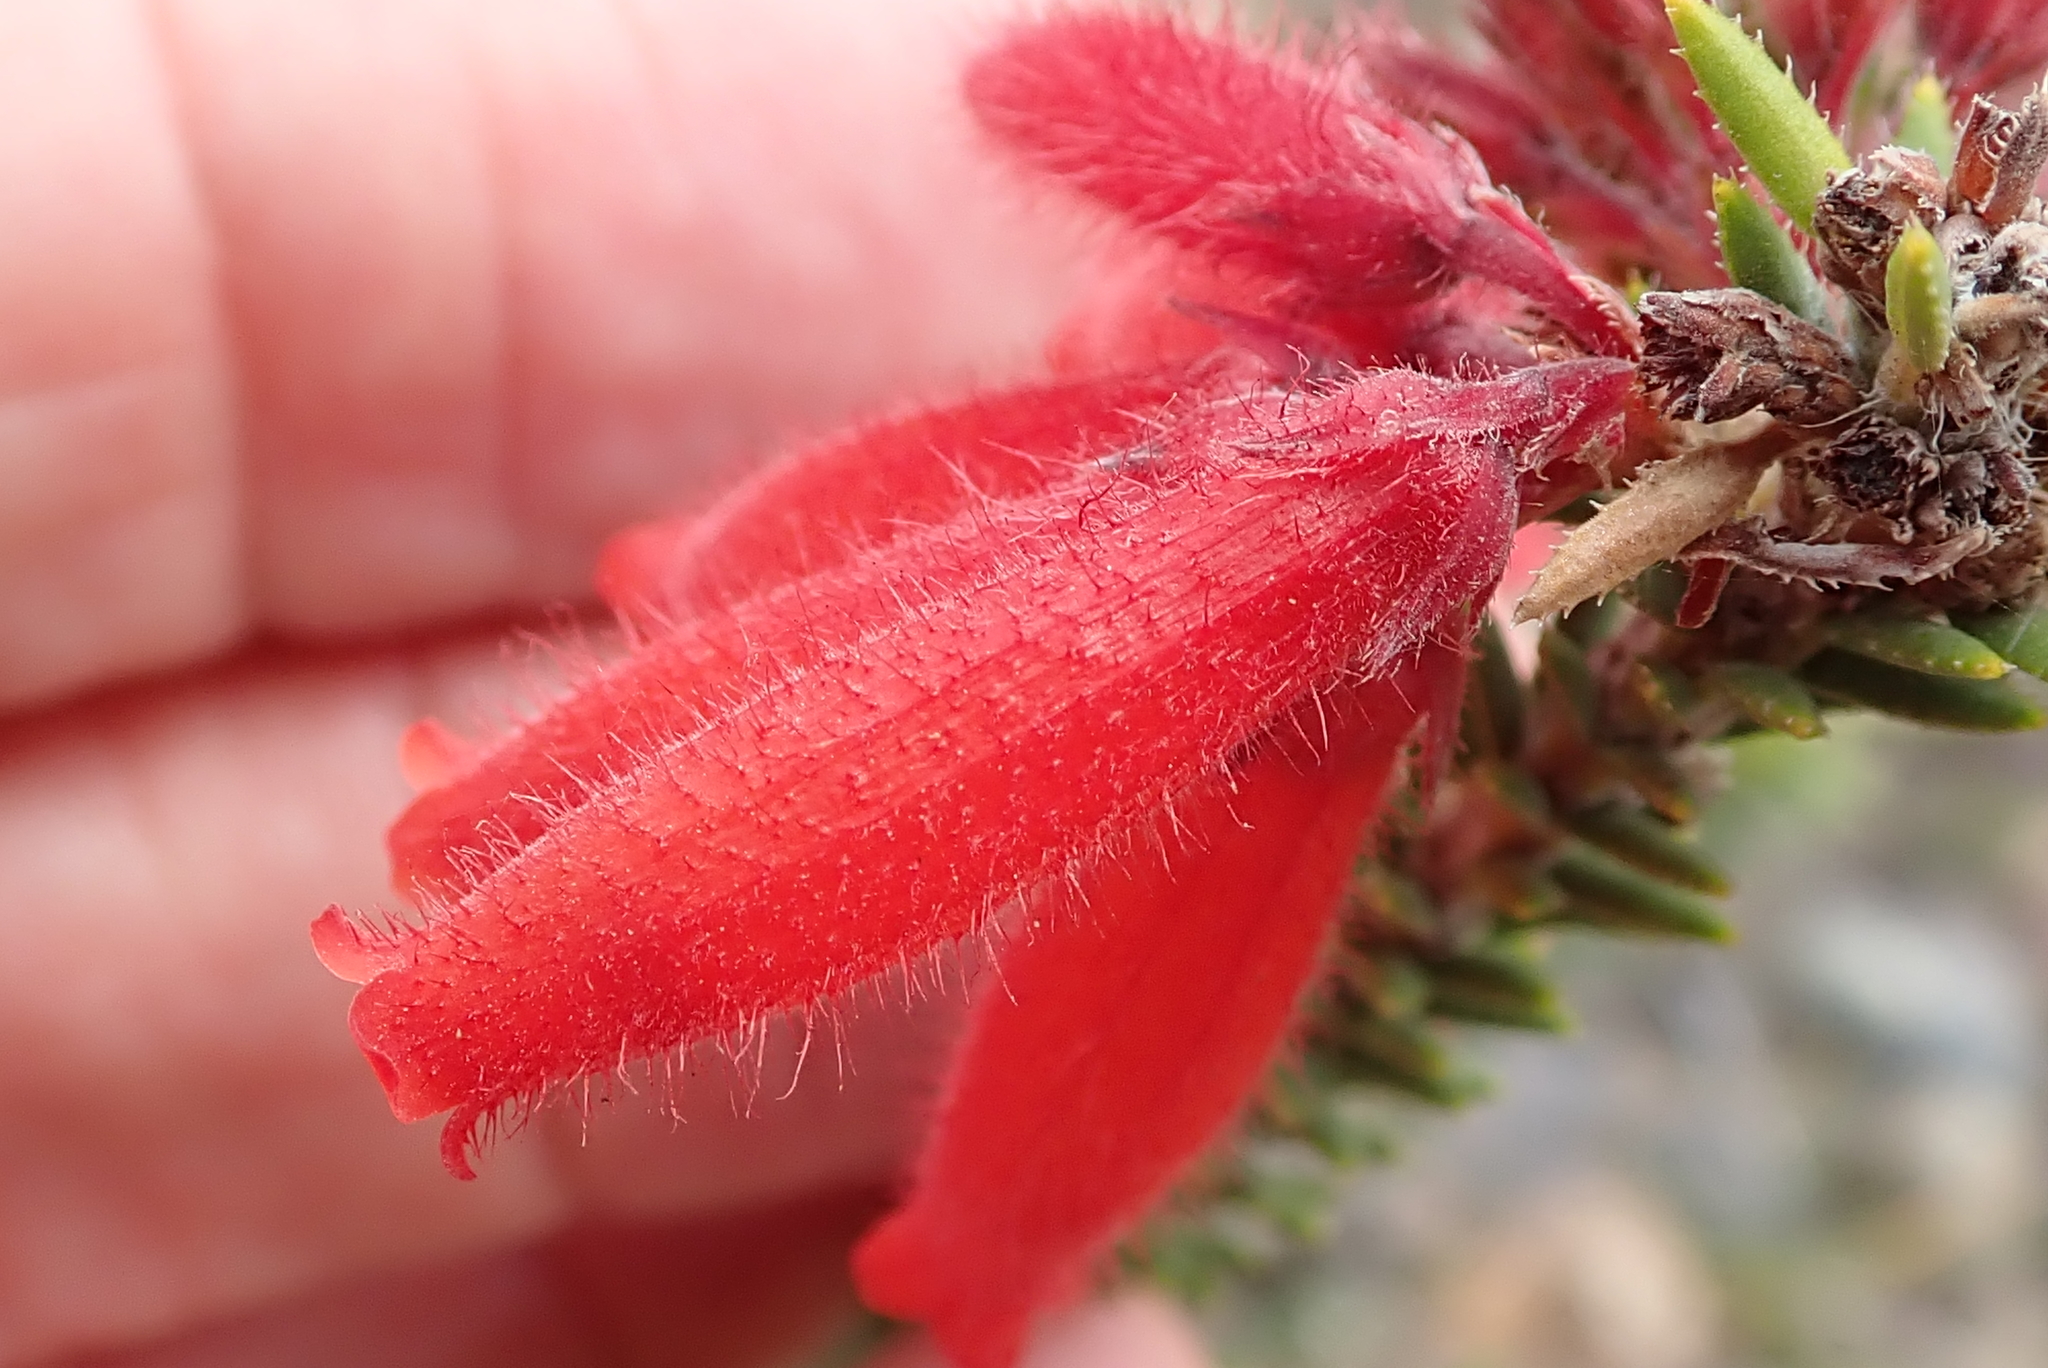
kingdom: Plantae
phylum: Tracheophyta
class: Magnoliopsida
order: Ericales
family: Ericaceae
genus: Erica
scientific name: Erica cerinthoides
